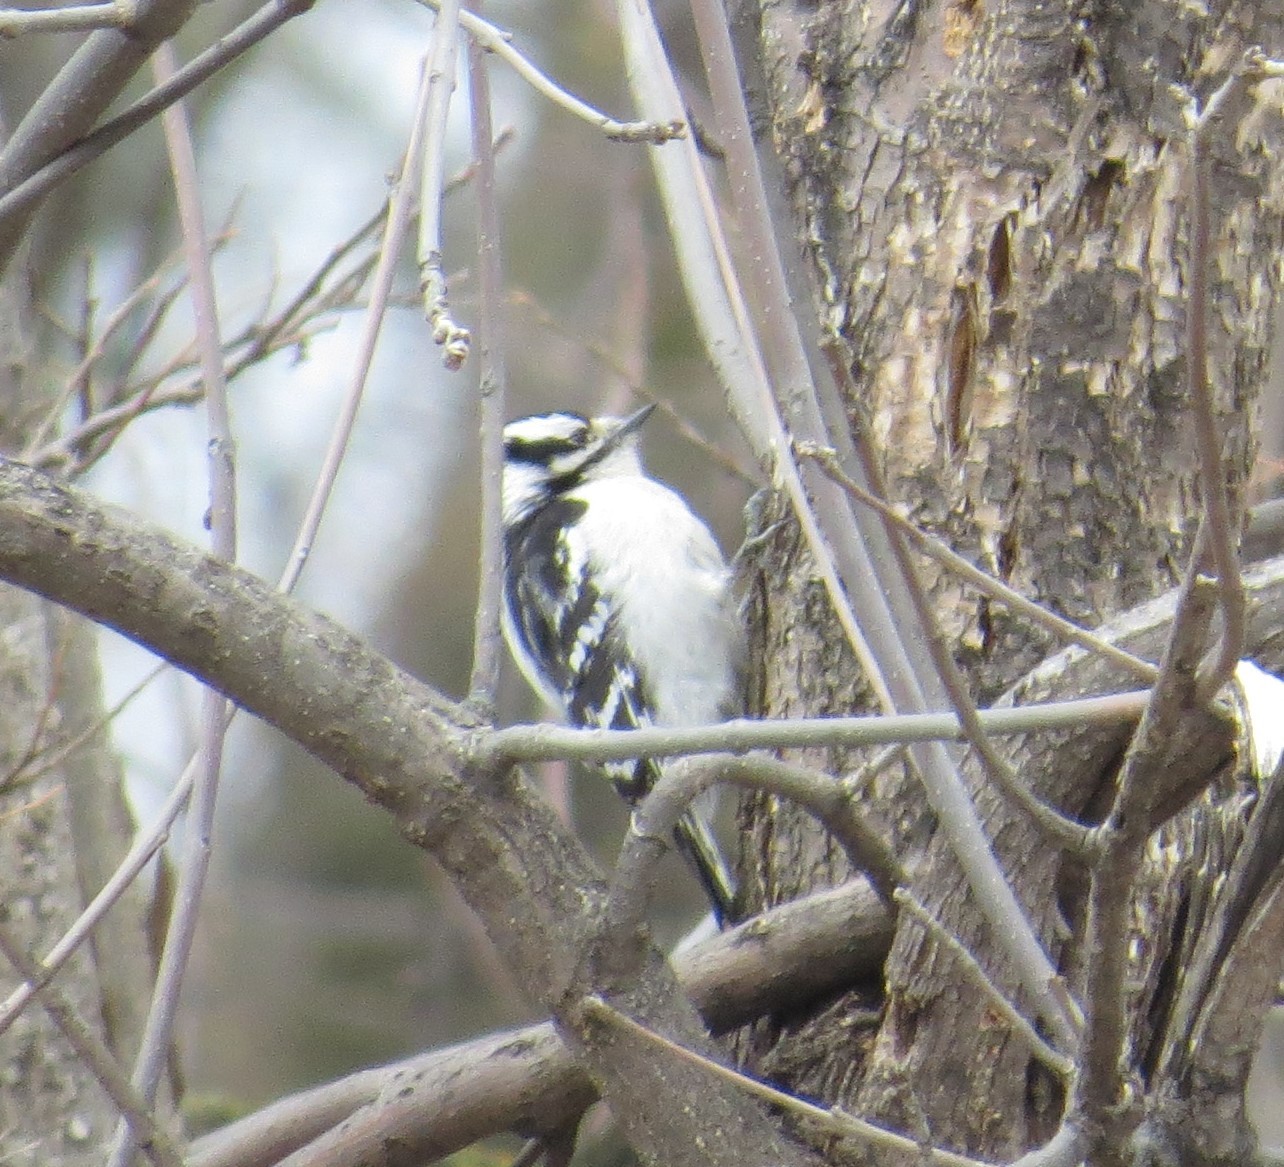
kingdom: Animalia
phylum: Chordata
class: Aves
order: Piciformes
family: Picidae
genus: Dryobates
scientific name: Dryobates pubescens
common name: Downy woodpecker
